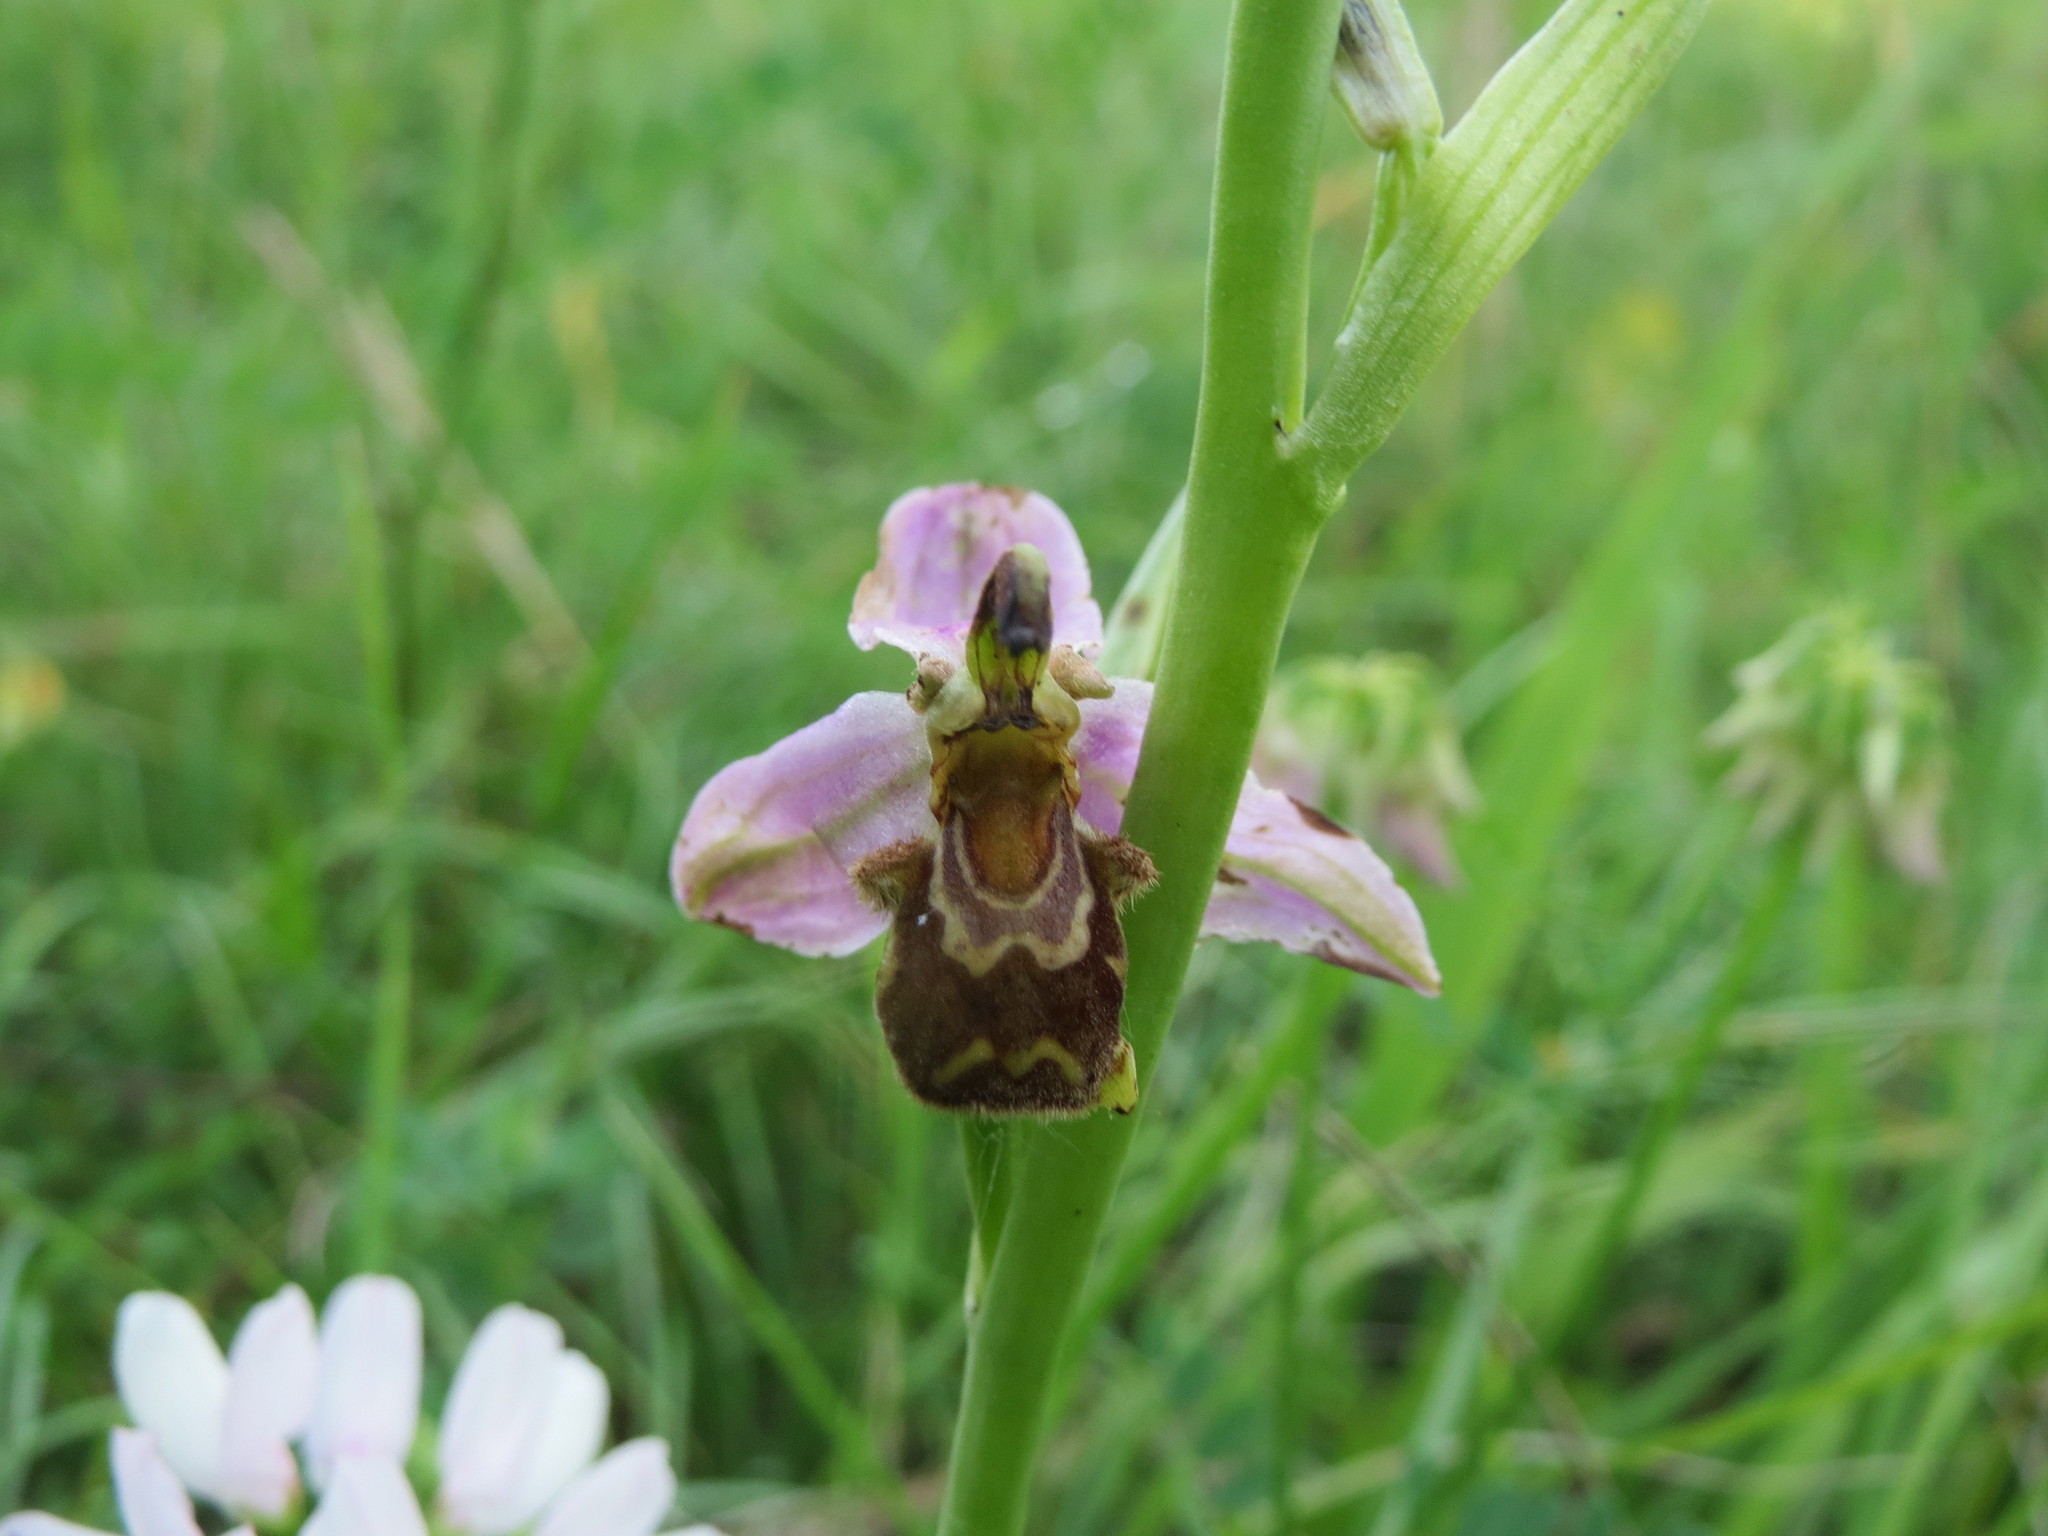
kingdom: Plantae
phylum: Tracheophyta
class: Liliopsida
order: Asparagales
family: Orchidaceae
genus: Ophrys
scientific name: Ophrys apifera
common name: Bee orchid
